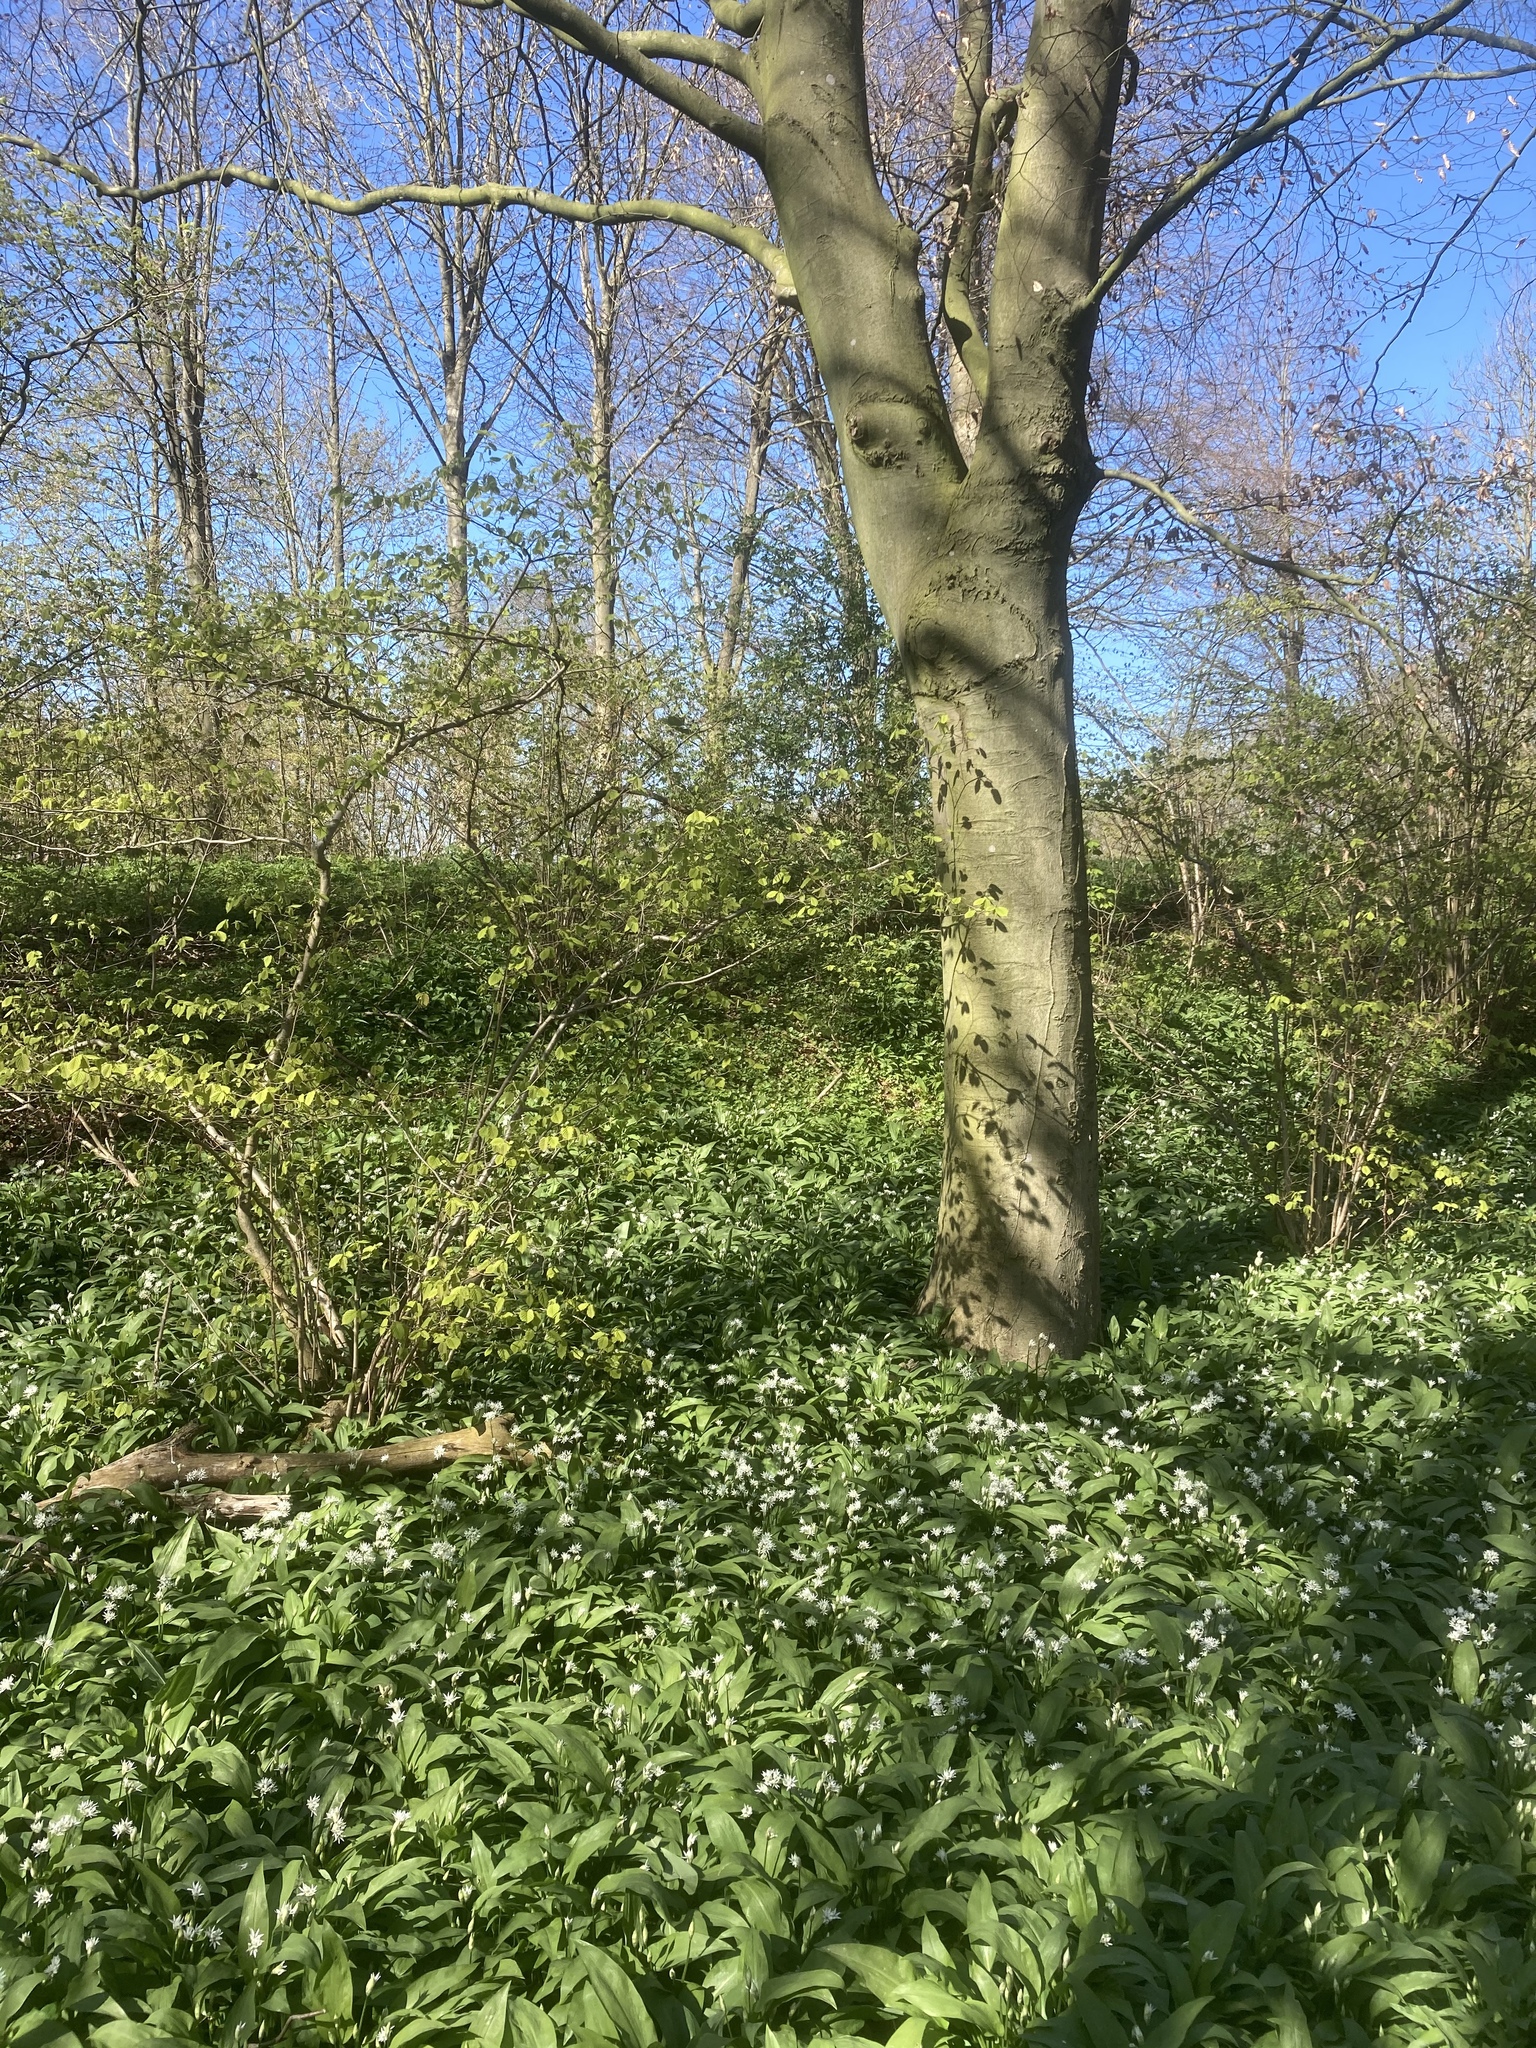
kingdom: Plantae
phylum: Tracheophyta
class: Liliopsida
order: Asparagales
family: Amaryllidaceae
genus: Allium
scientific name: Allium ursinum
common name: Ramsons
